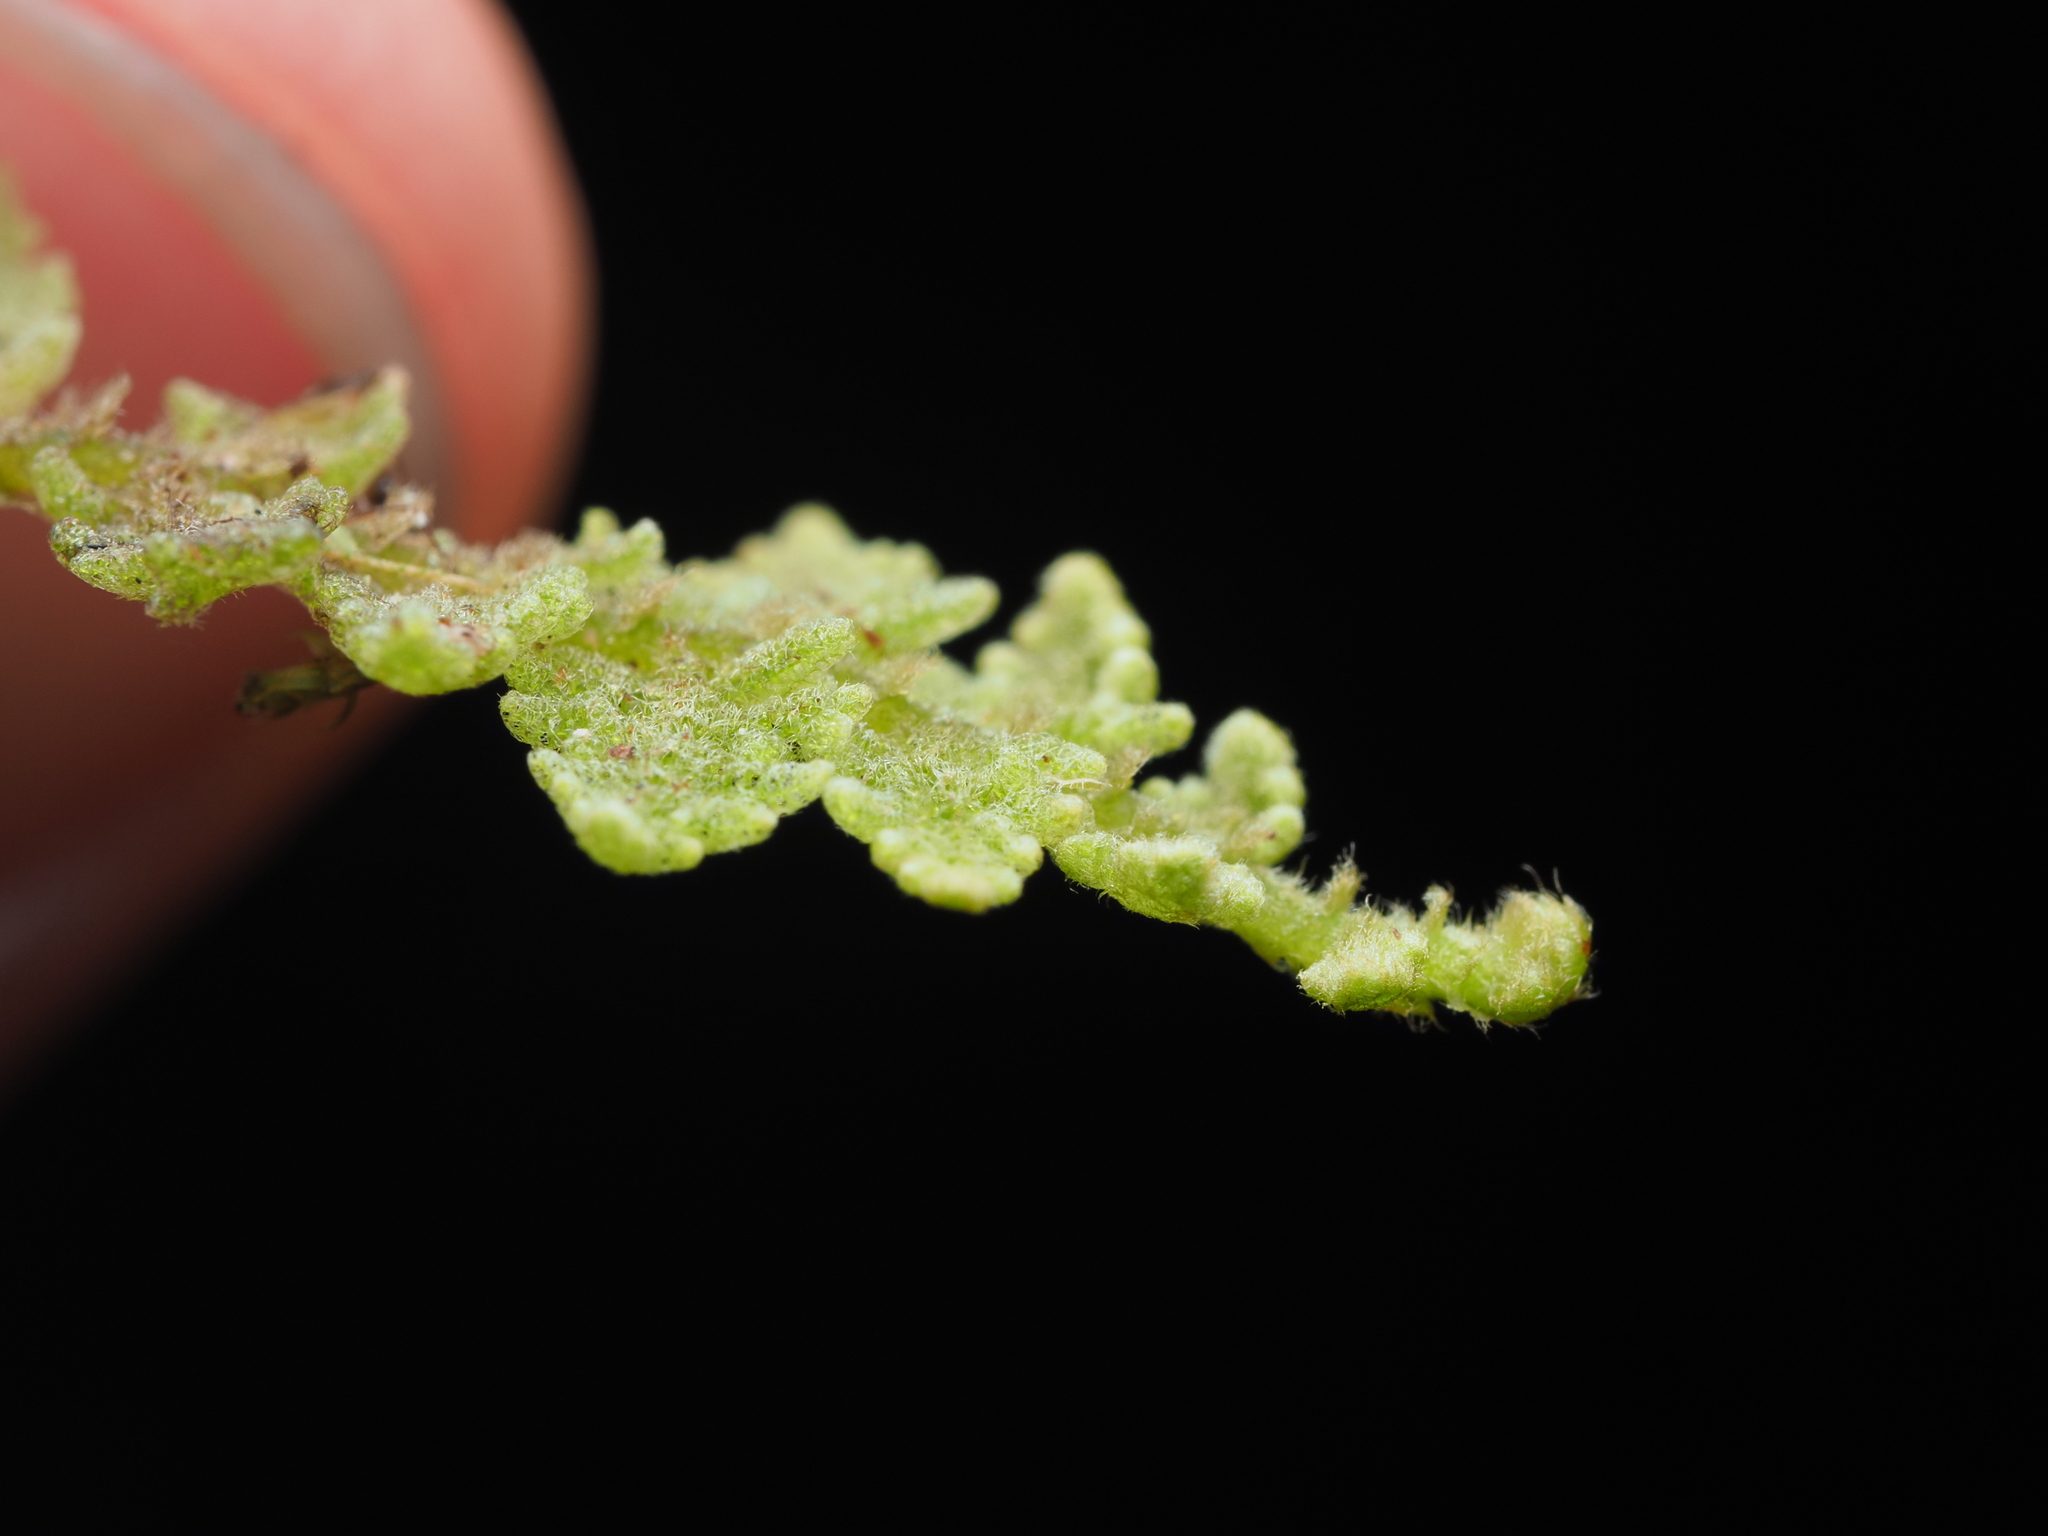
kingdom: Plantae
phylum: Marchantiophyta
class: Jungermanniopsida
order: Porellales
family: Lepidolaenaceae
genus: Lepidogyna
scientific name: Lepidogyna hodgsoniae
